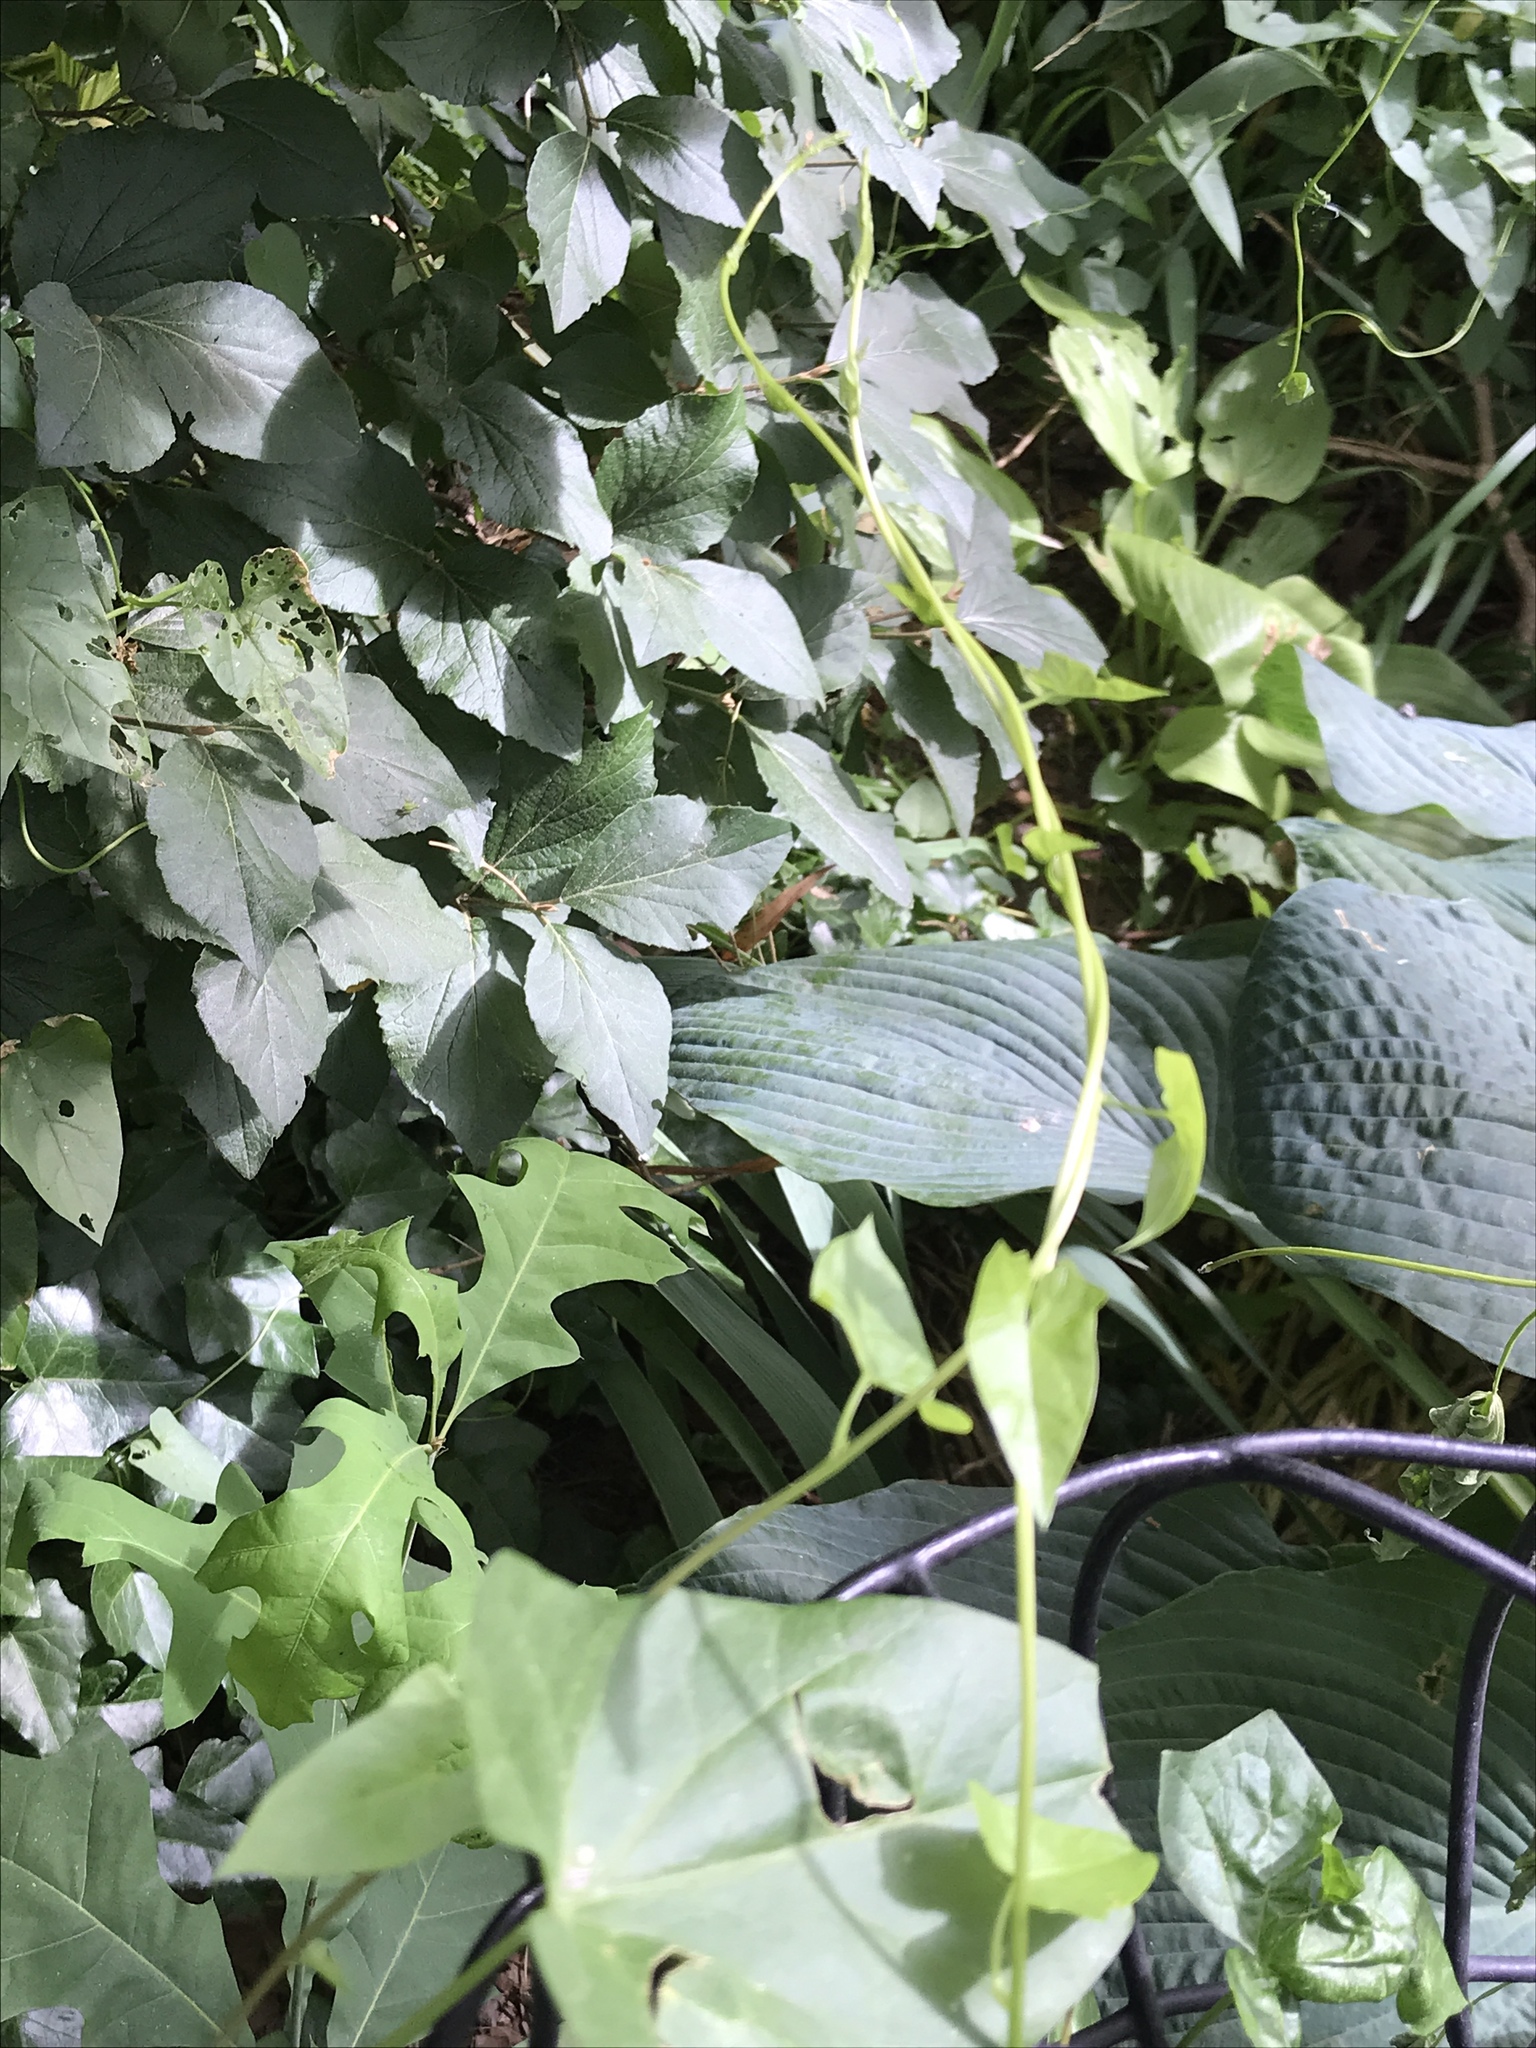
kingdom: Plantae
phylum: Tracheophyta
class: Magnoliopsida
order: Solanales
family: Convolvulaceae
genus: Calystegia
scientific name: Calystegia sepium
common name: Hedge bindweed
